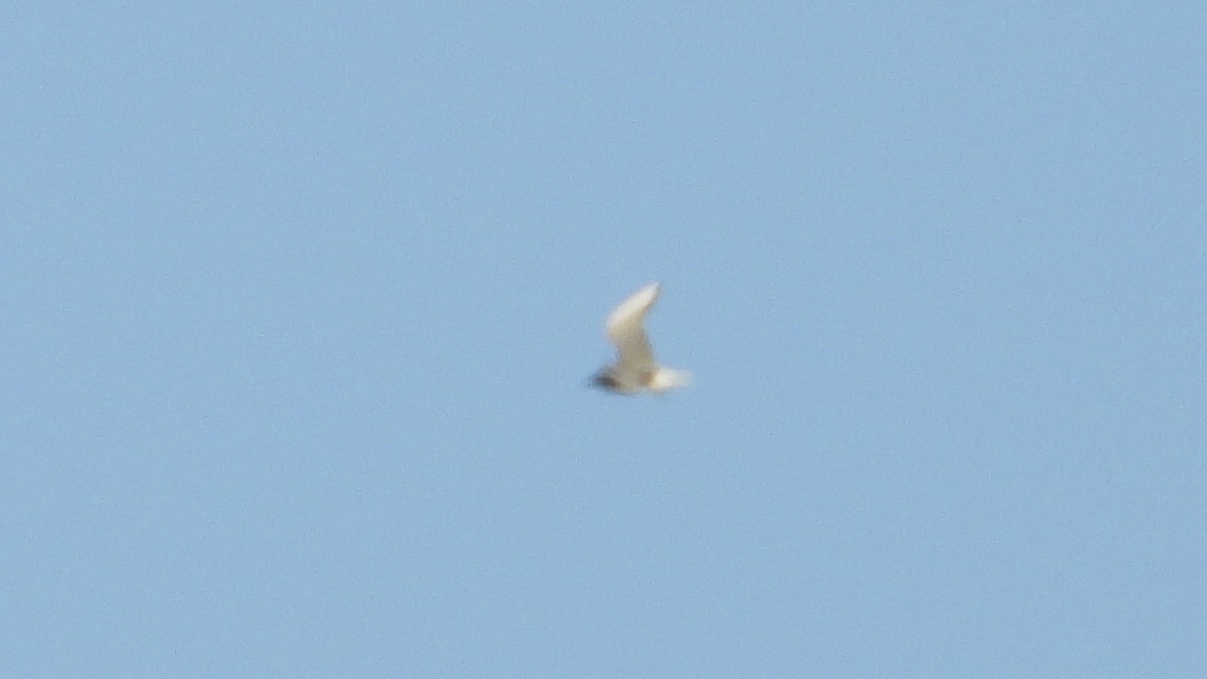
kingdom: Animalia
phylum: Chordata
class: Aves
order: Charadriiformes
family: Laridae
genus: Chroicocephalus
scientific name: Chroicocephalus philadelphia
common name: Bonaparte's gull
